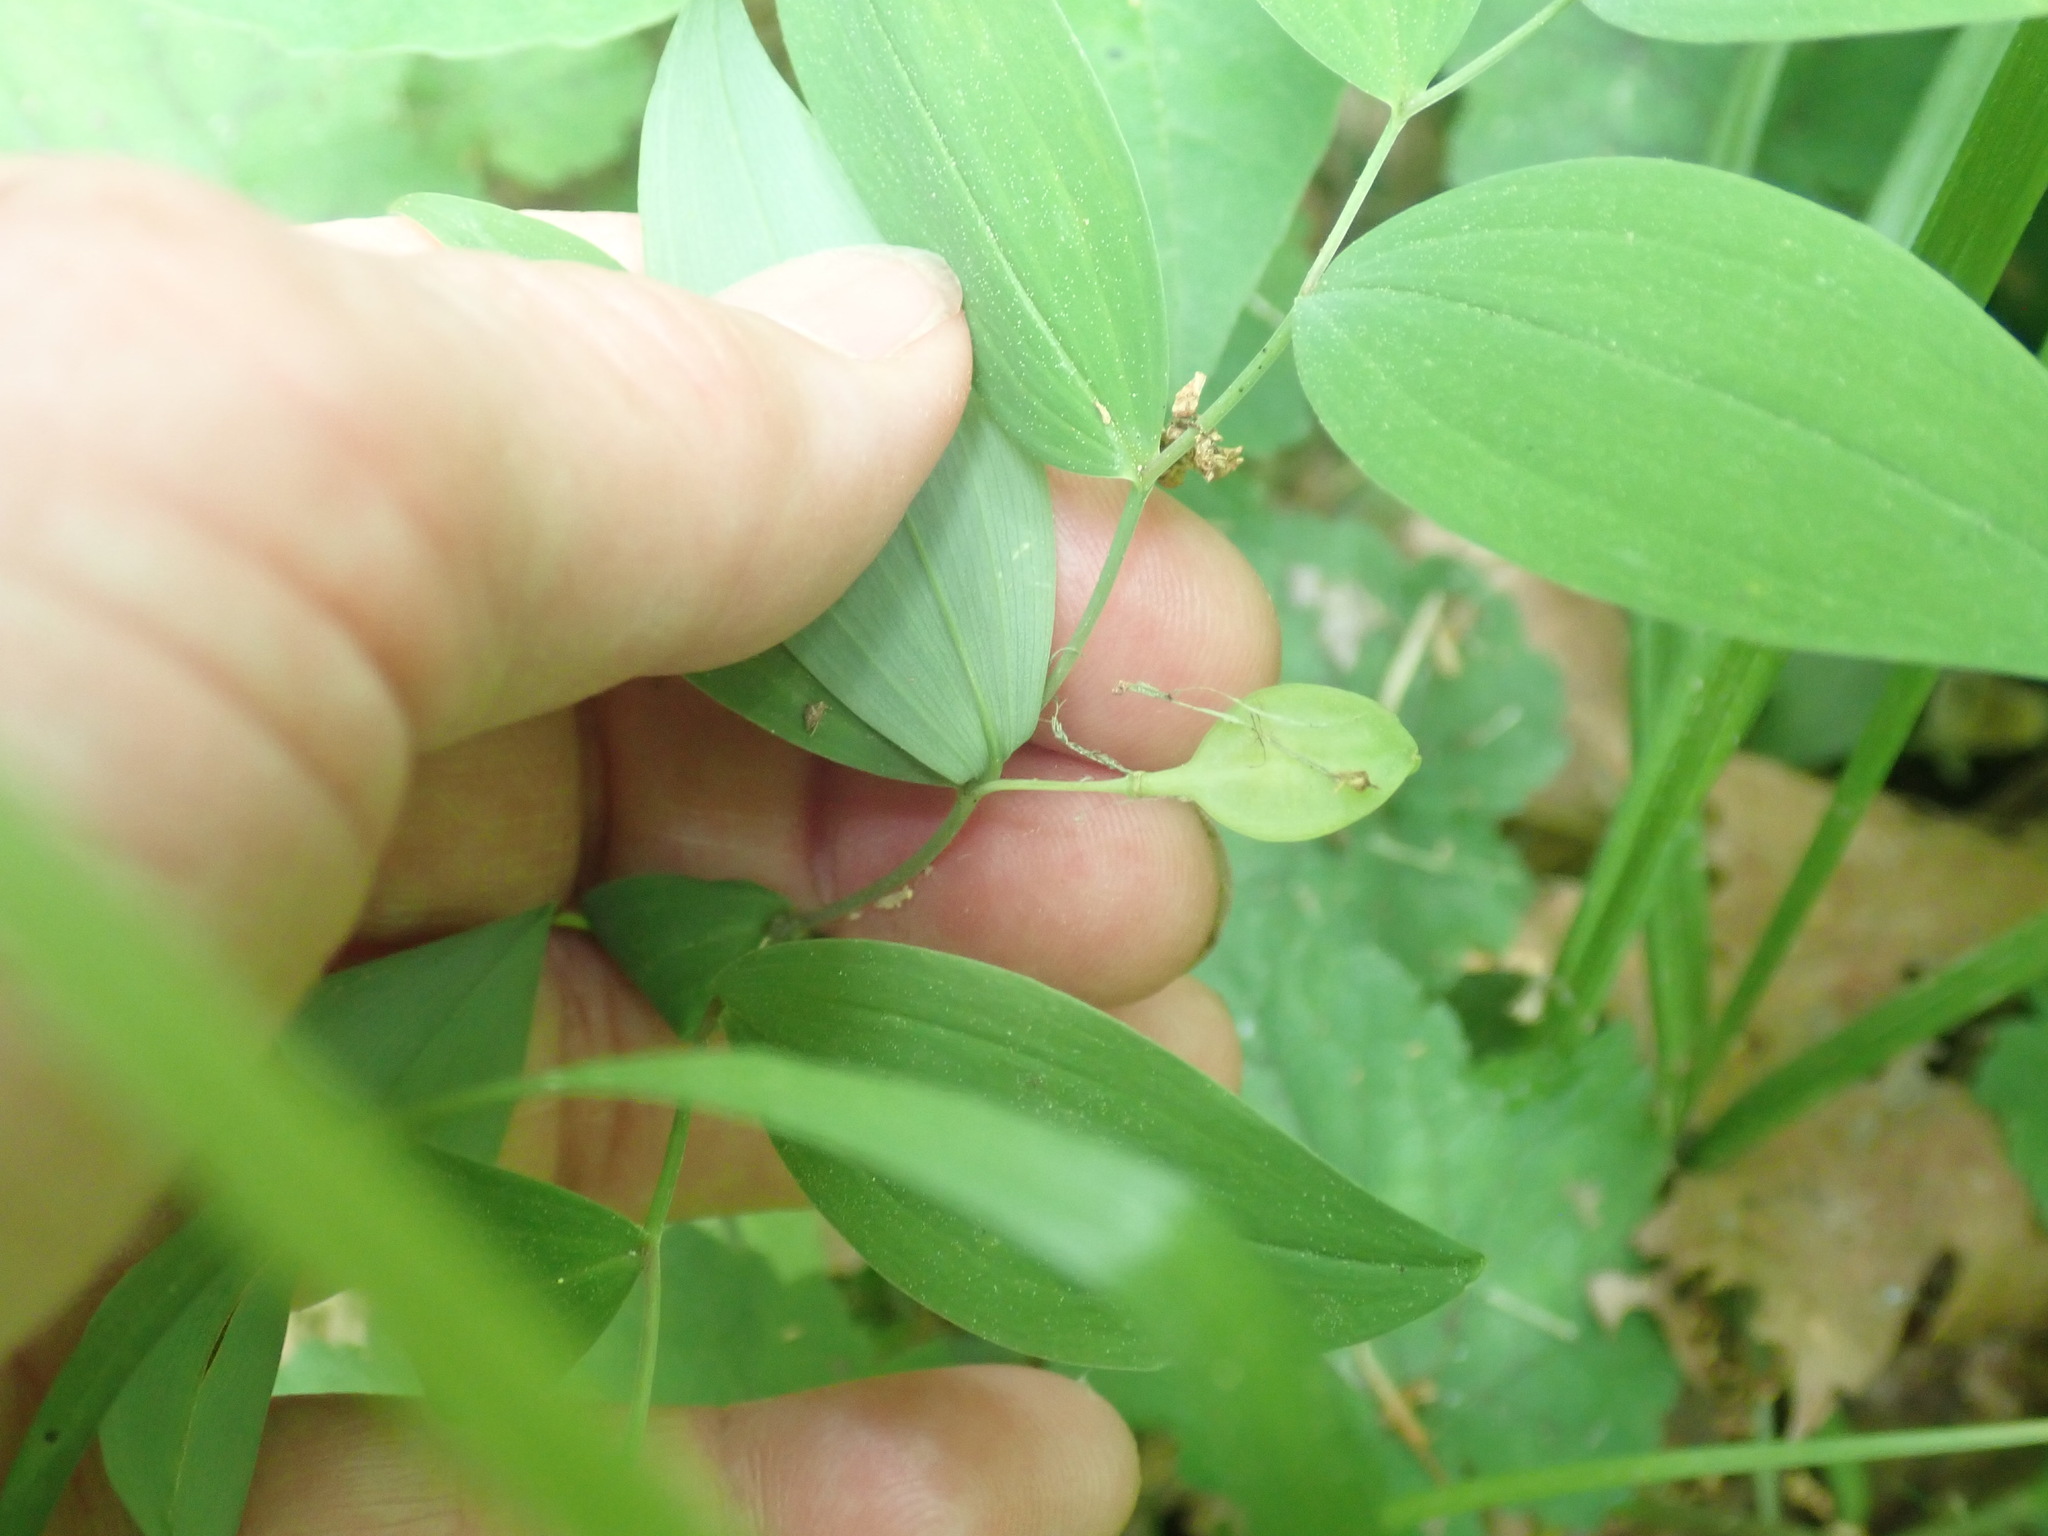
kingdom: Plantae
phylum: Tracheophyta
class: Liliopsida
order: Liliales
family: Colchicaceae
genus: Uvularia
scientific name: Uvularia sessilifolia
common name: Straw-lily
